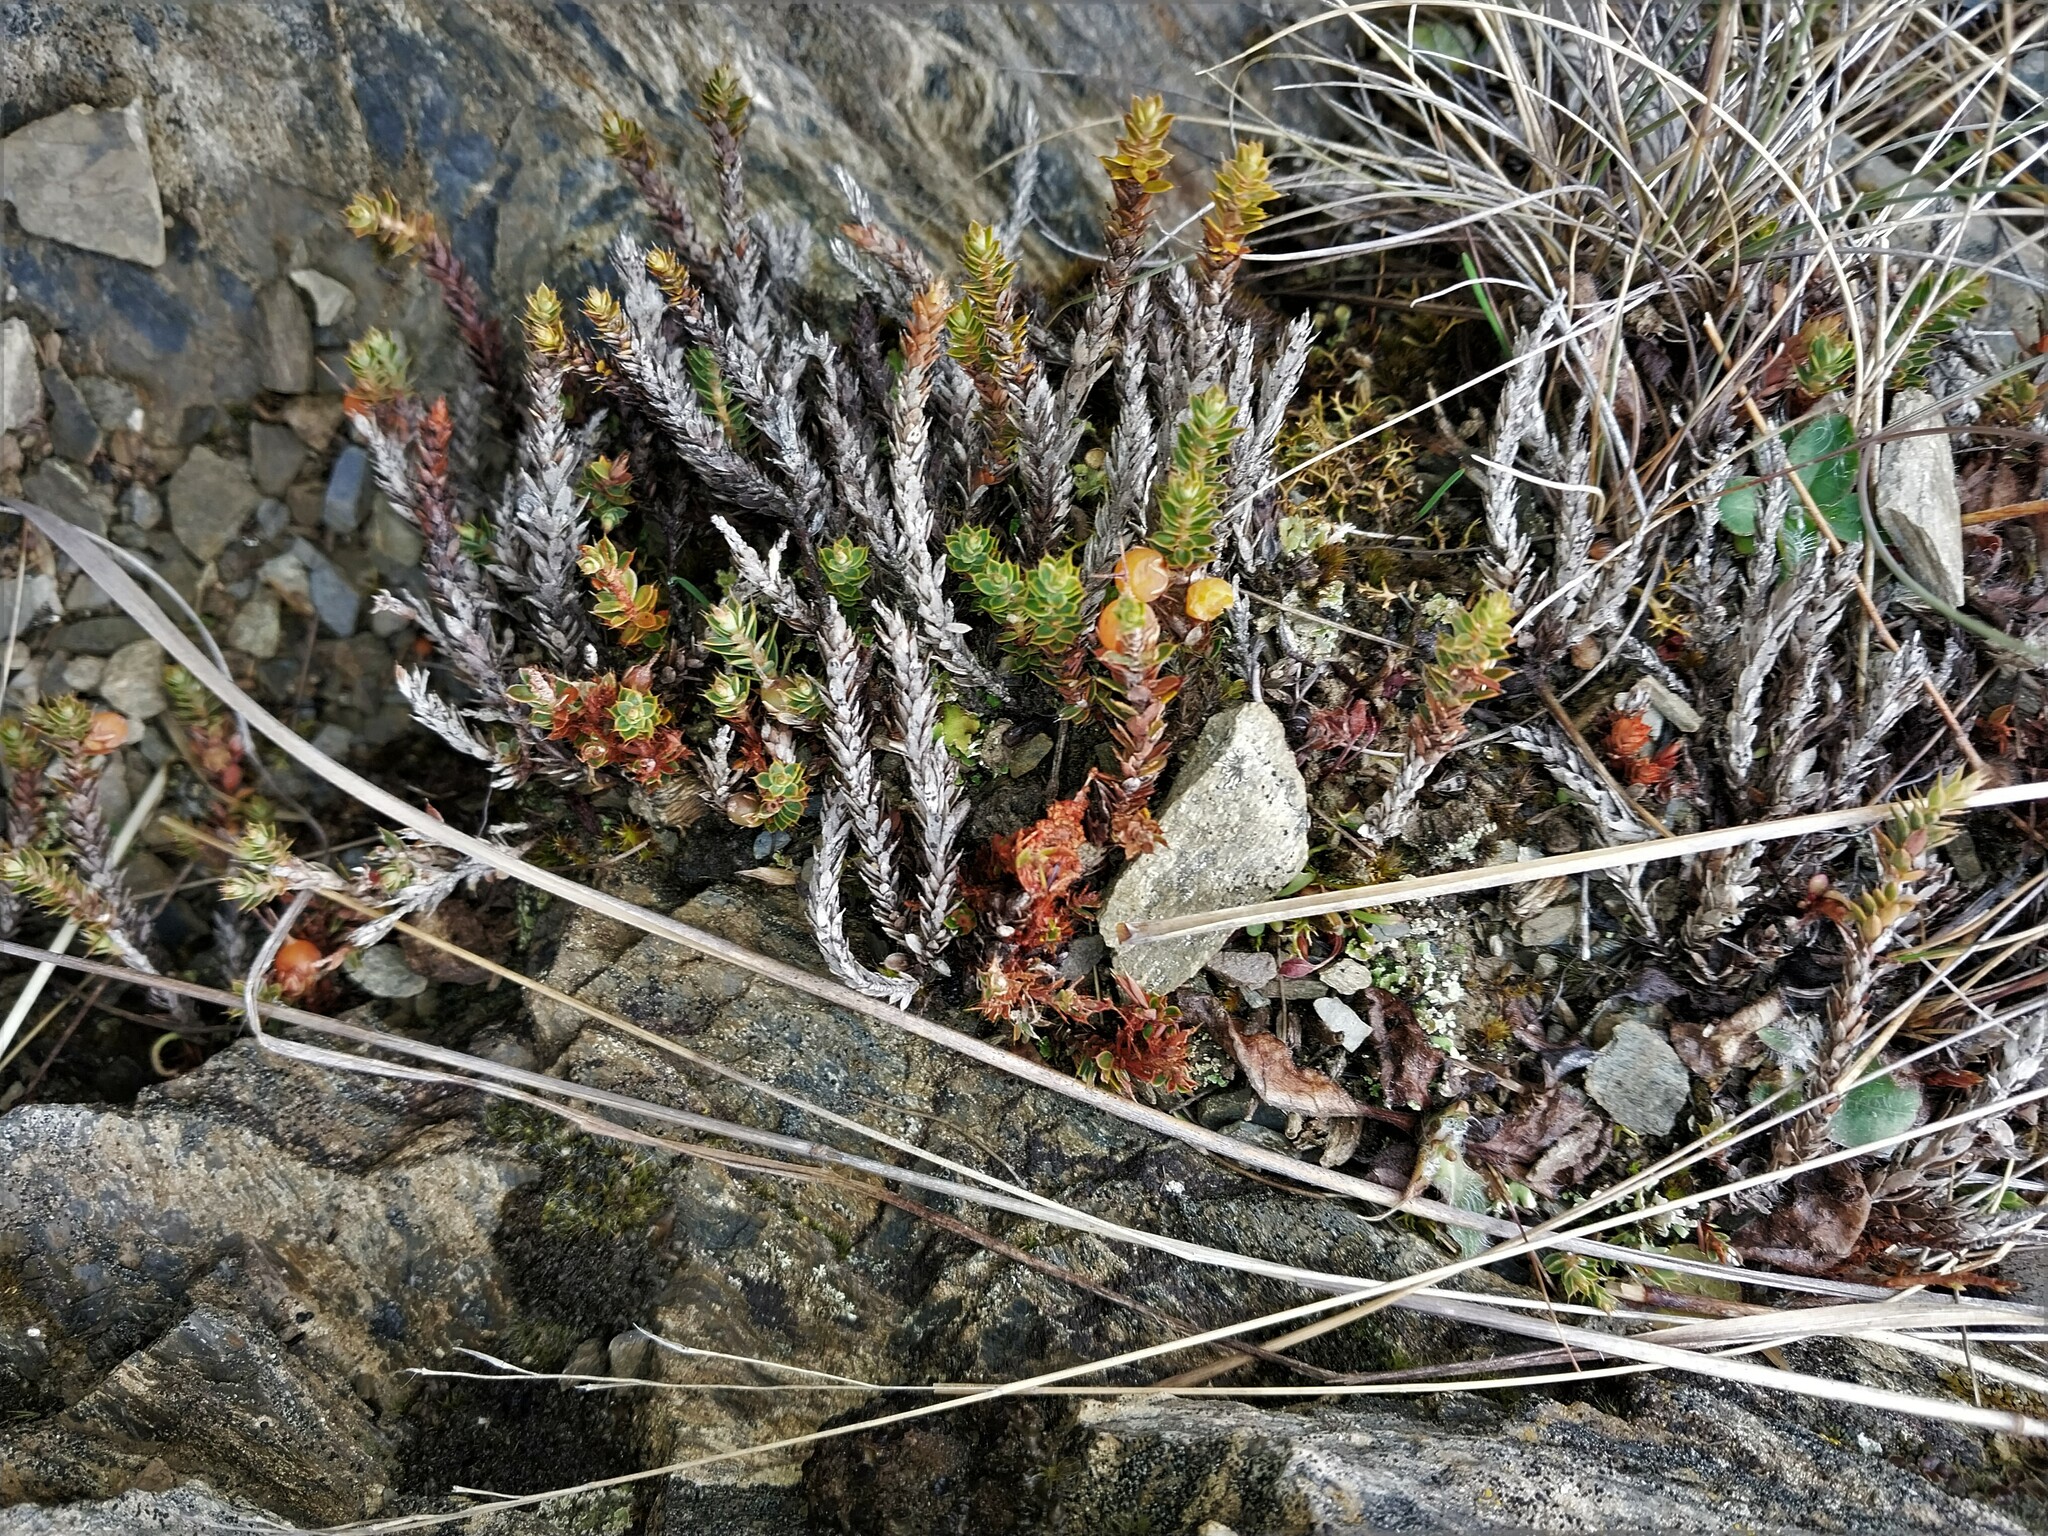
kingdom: Plantae
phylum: Tracheophyta
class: Magnoliopsida
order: Ericales
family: Ericaceae
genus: Styphelia
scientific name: Styphelia nesophila
